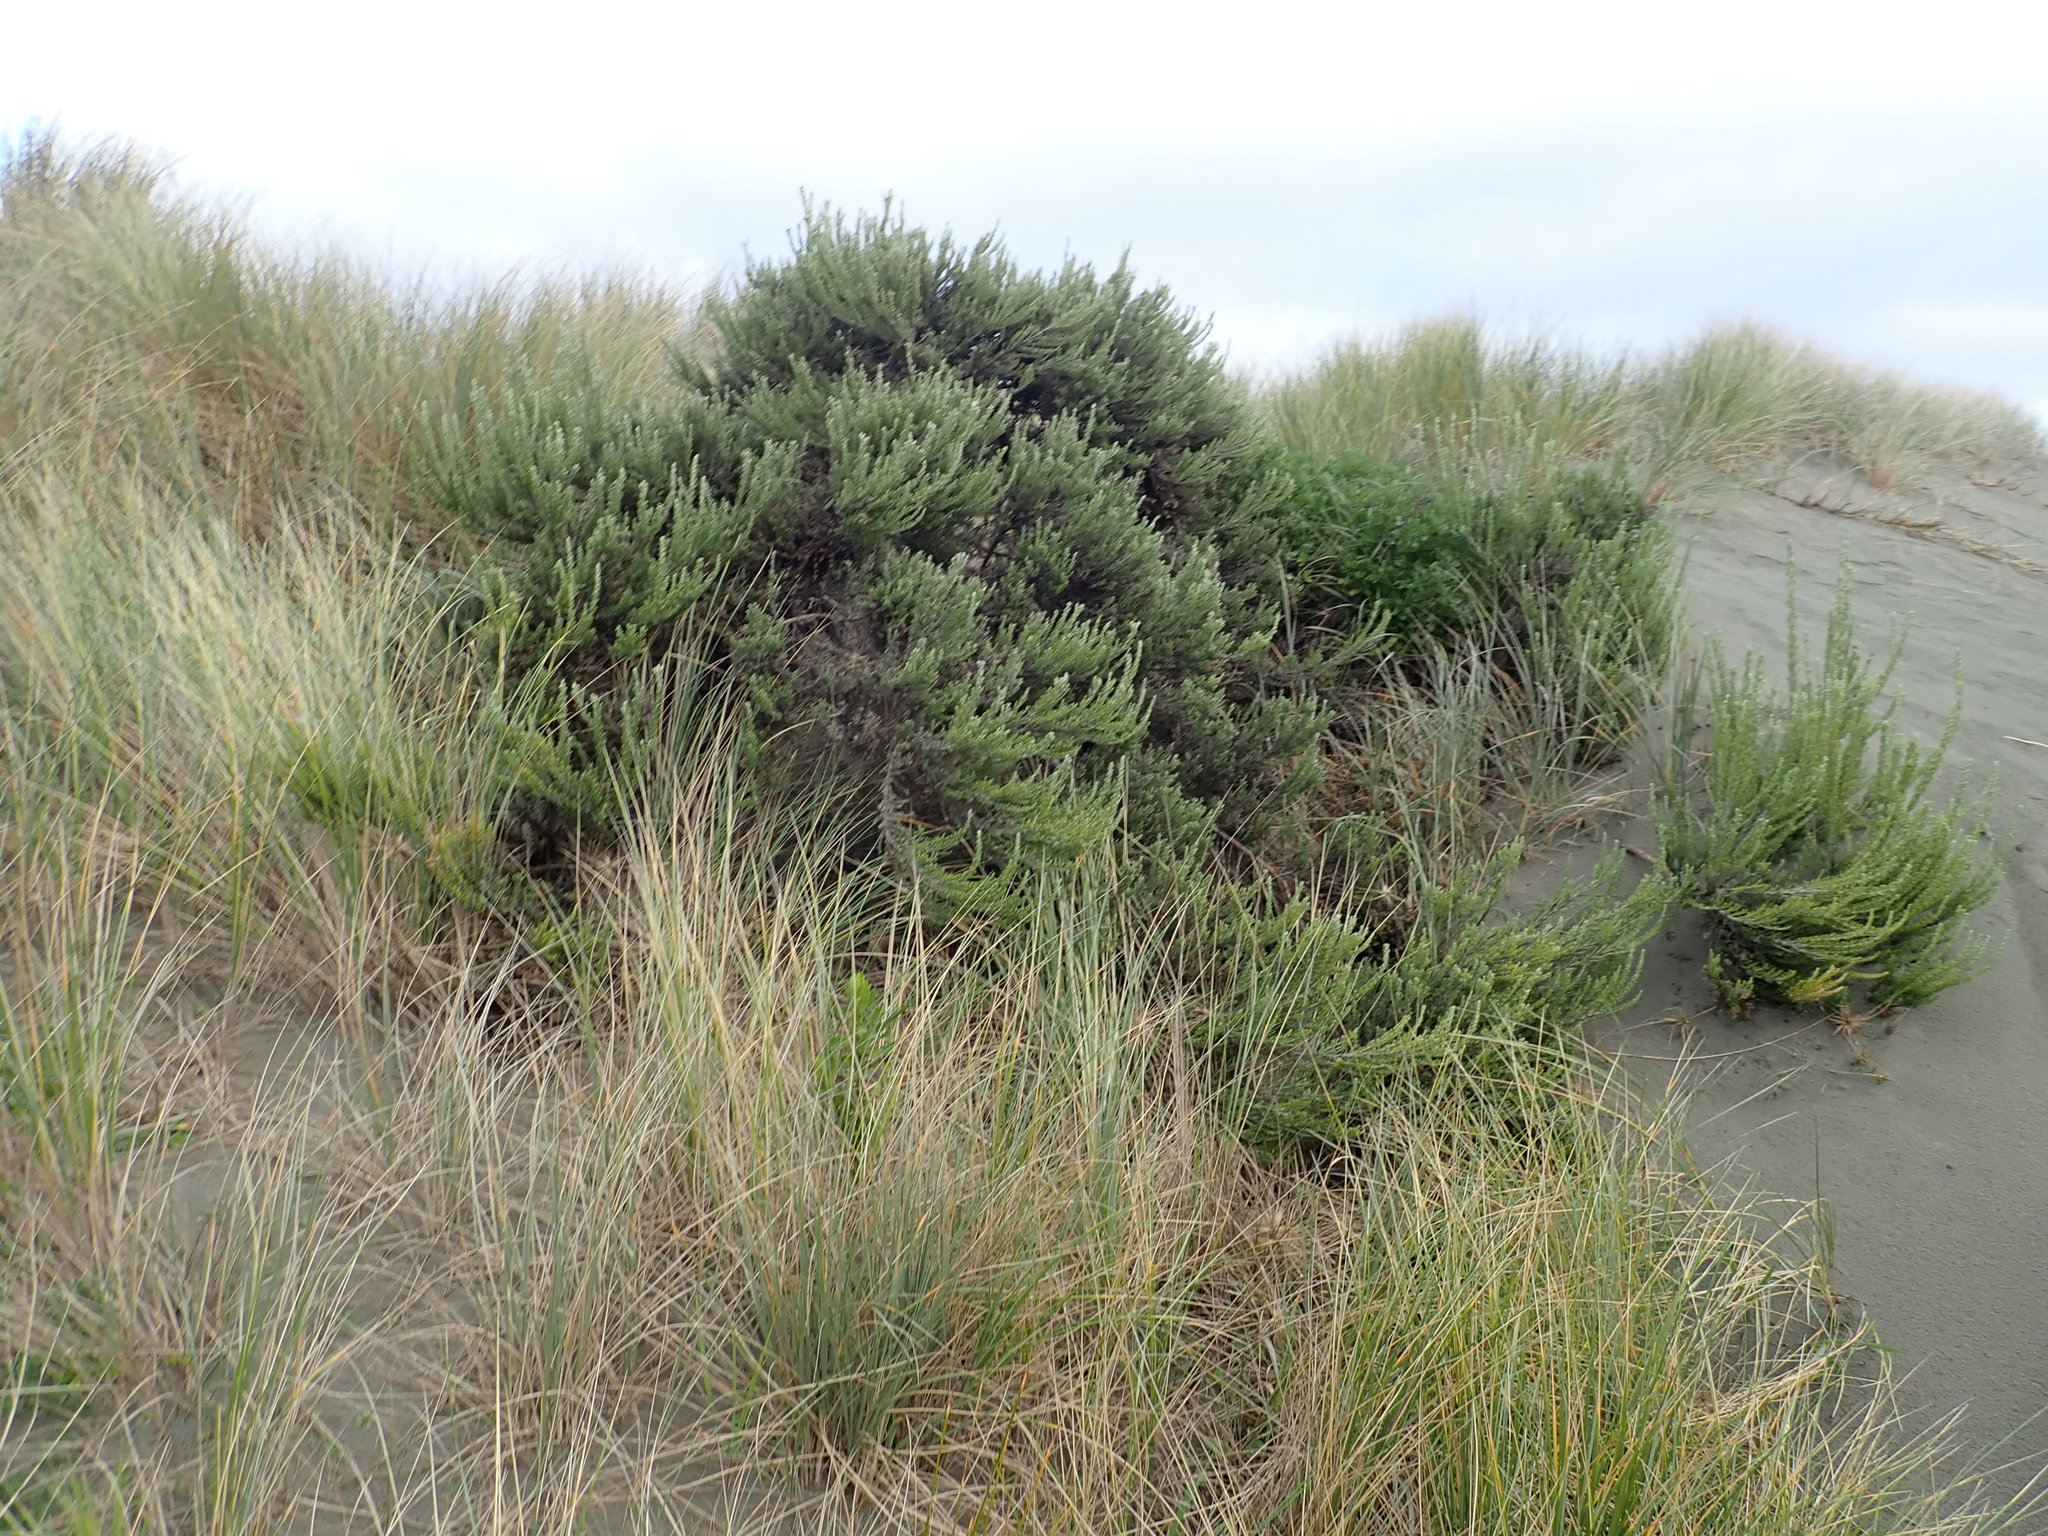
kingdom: Plantae
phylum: Tracheophyta
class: Magnoliopsida
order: Asterales
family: Asteraceae
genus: Ozothamnus
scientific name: Ozothamnus leptophyllus
